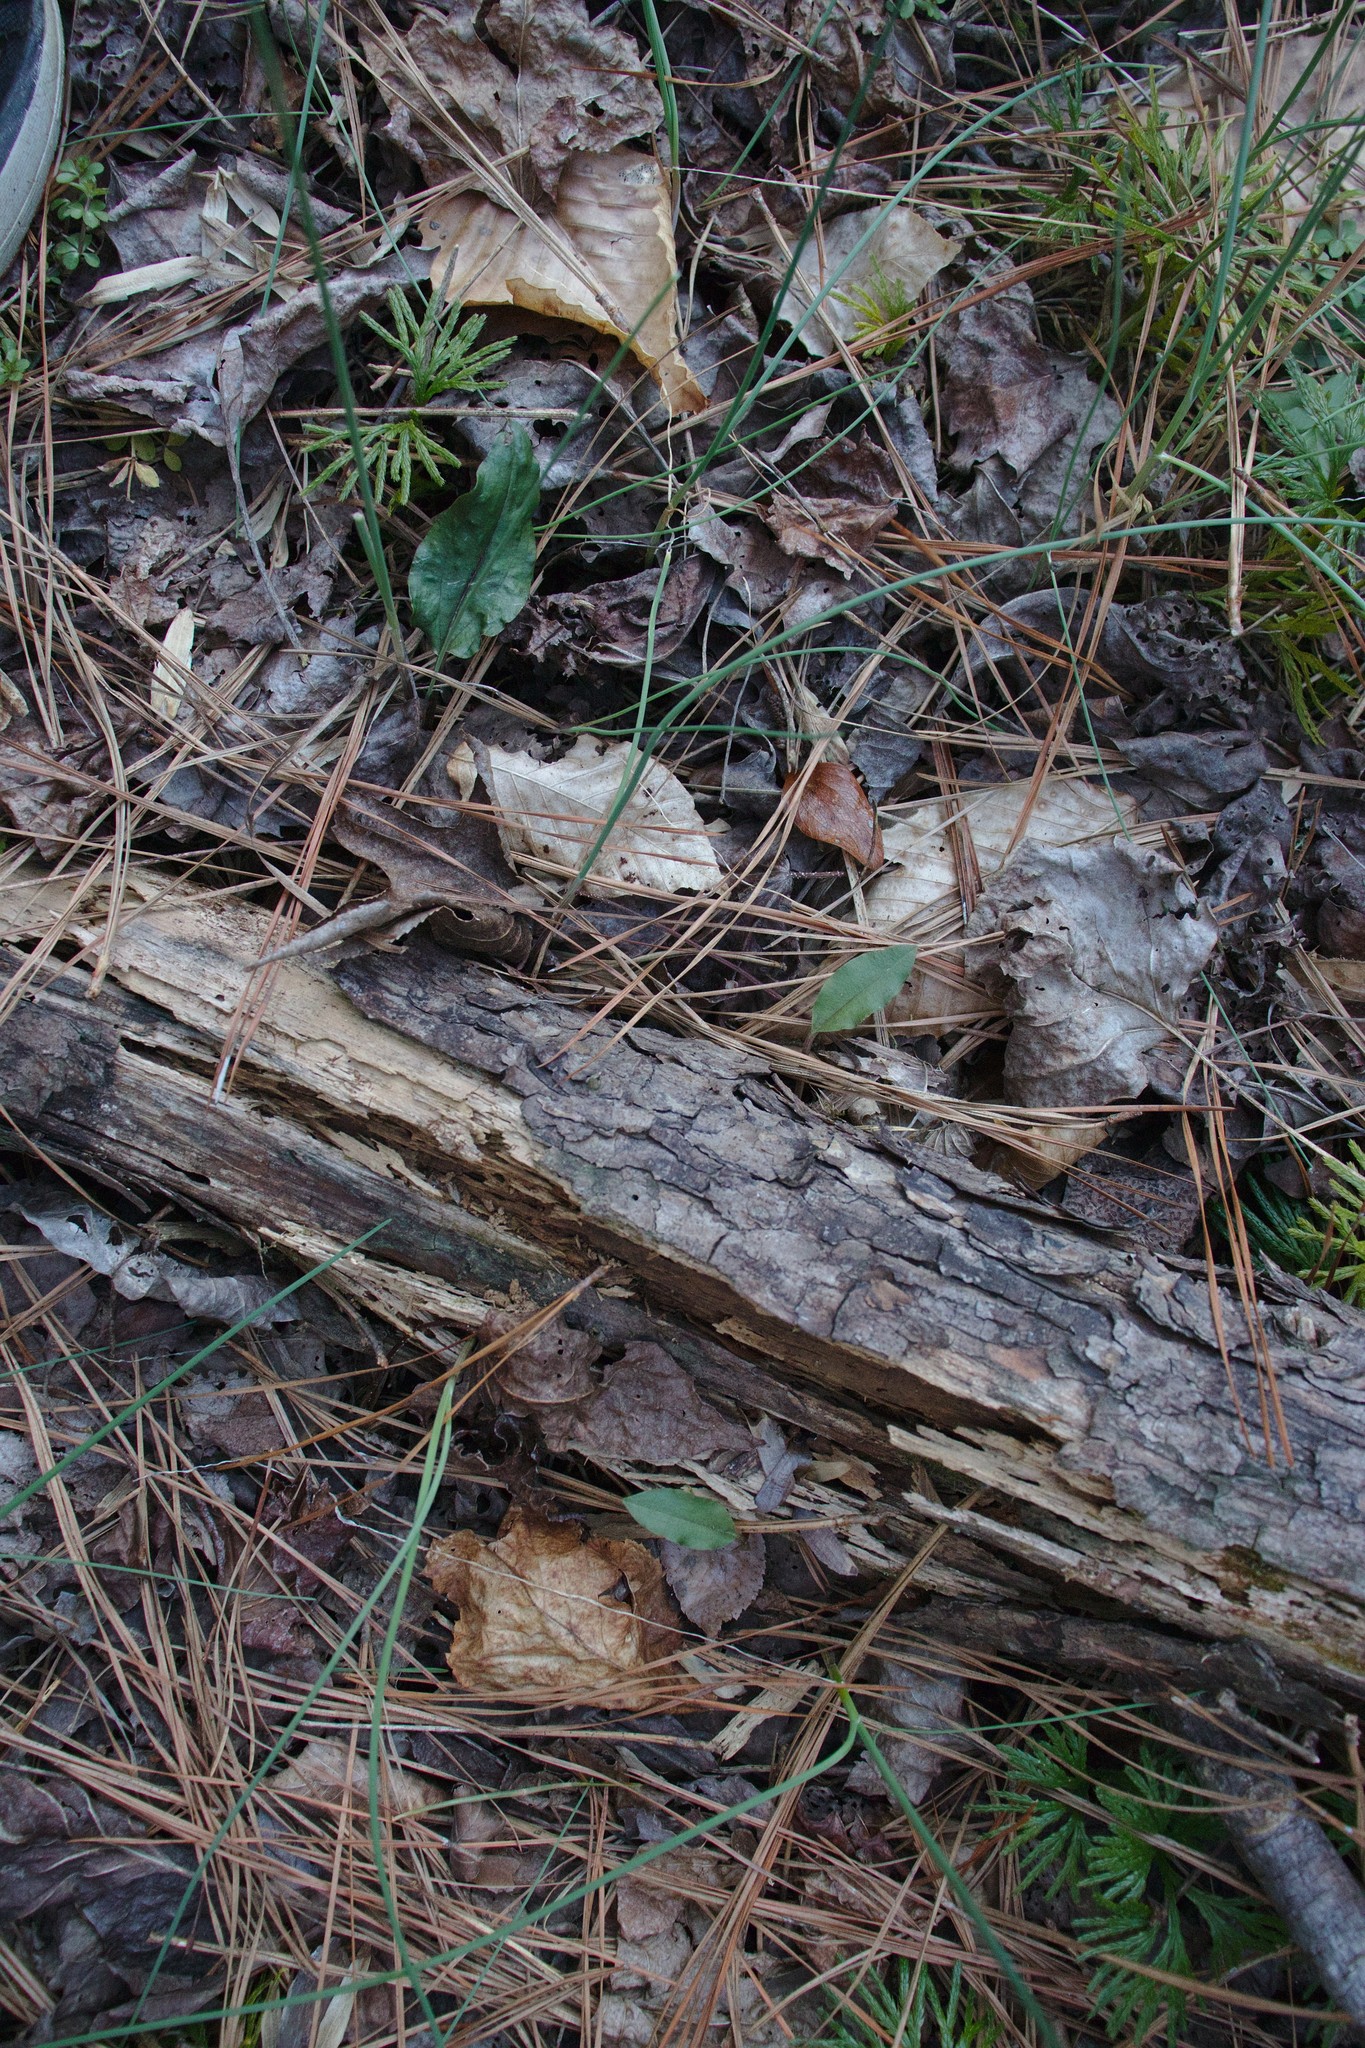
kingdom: Plantae
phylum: Tracheophyta
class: Liliopsida
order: Asparagales
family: Orchidaceae
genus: Tipularia
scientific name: Tipularia discolor
